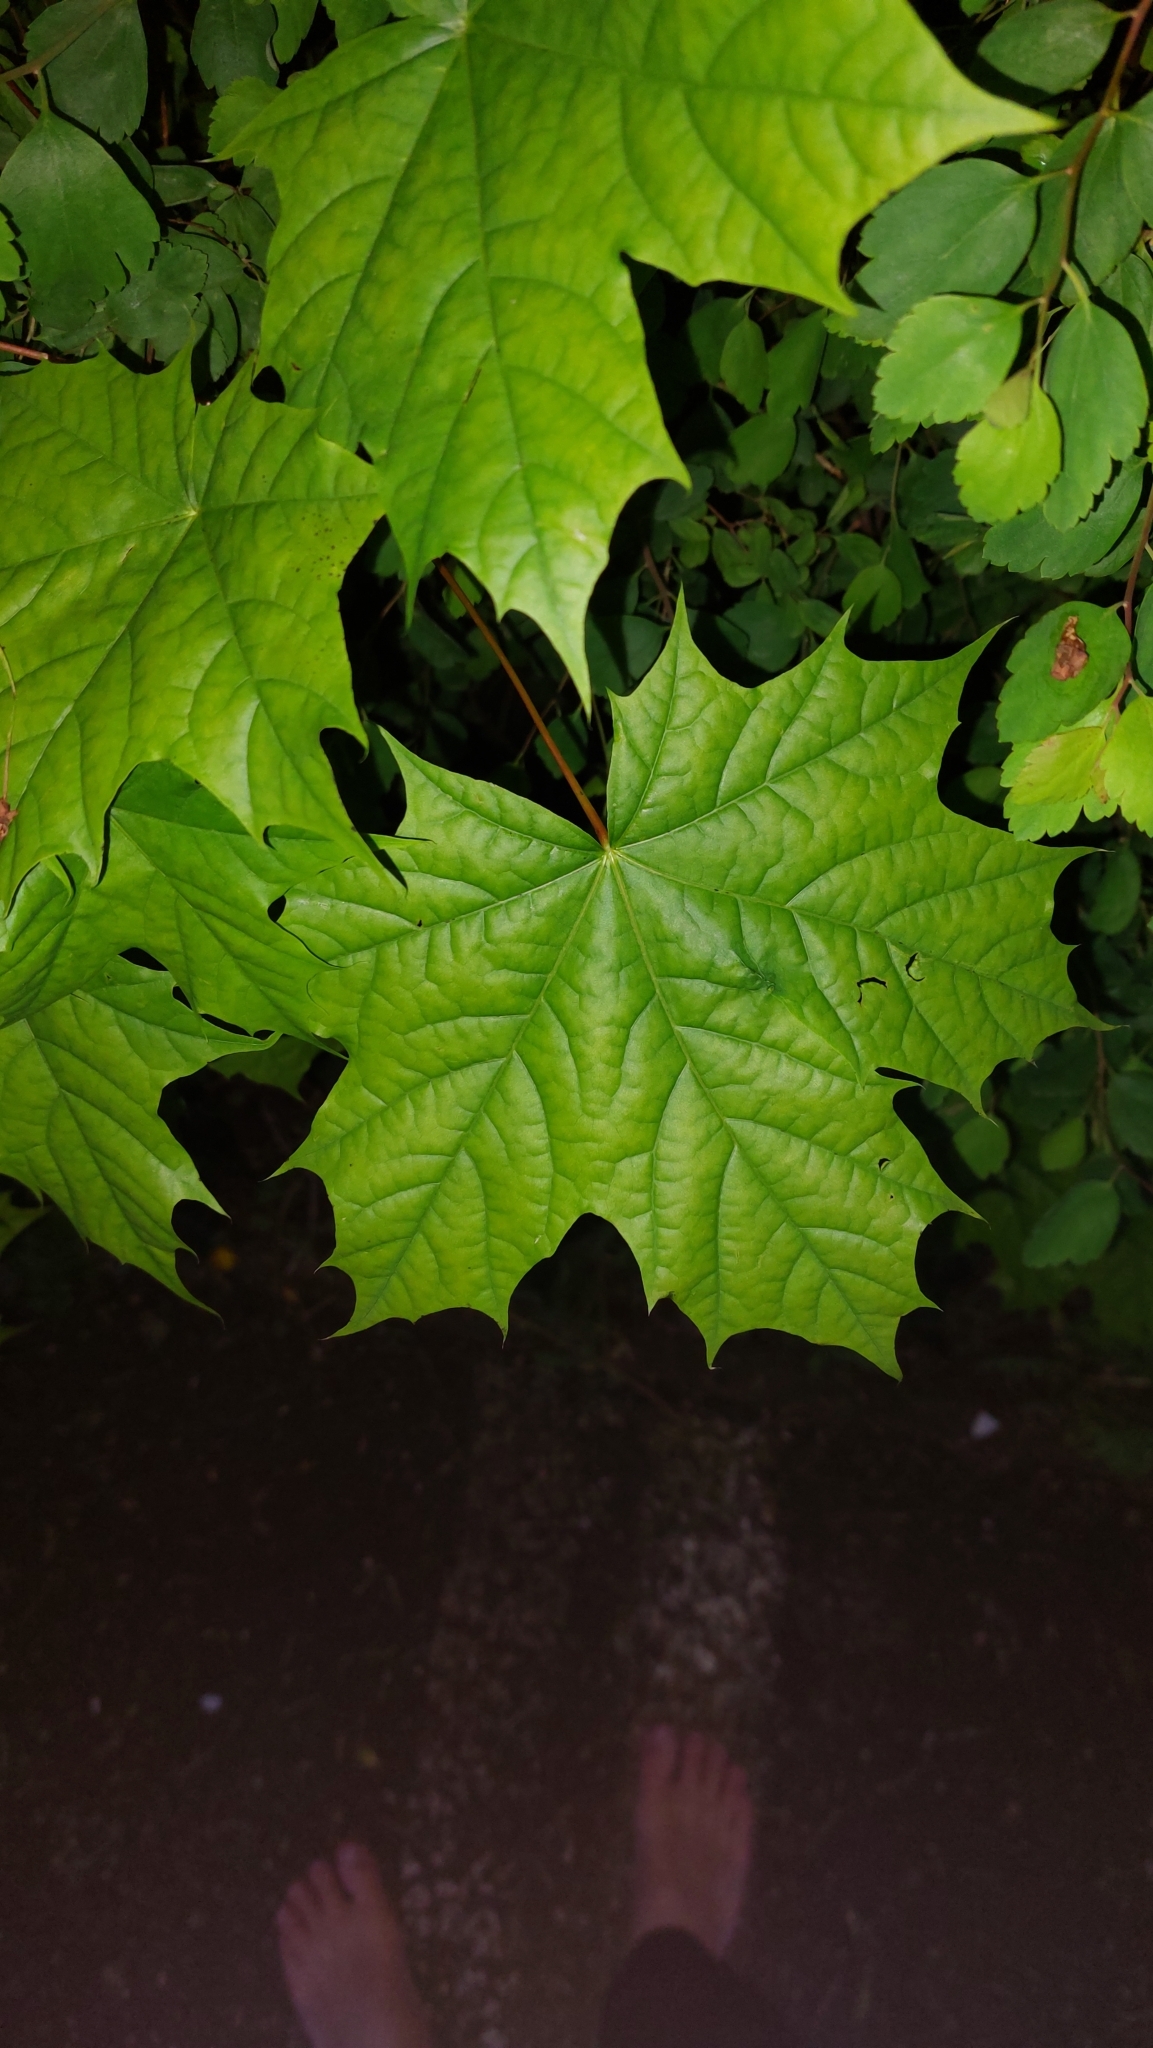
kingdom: Plantae
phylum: Tracheophyta
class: Magnoliopsida
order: Sapindales
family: Sapindaceae
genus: Acer
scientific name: Acer platanoides
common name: Norway maple
